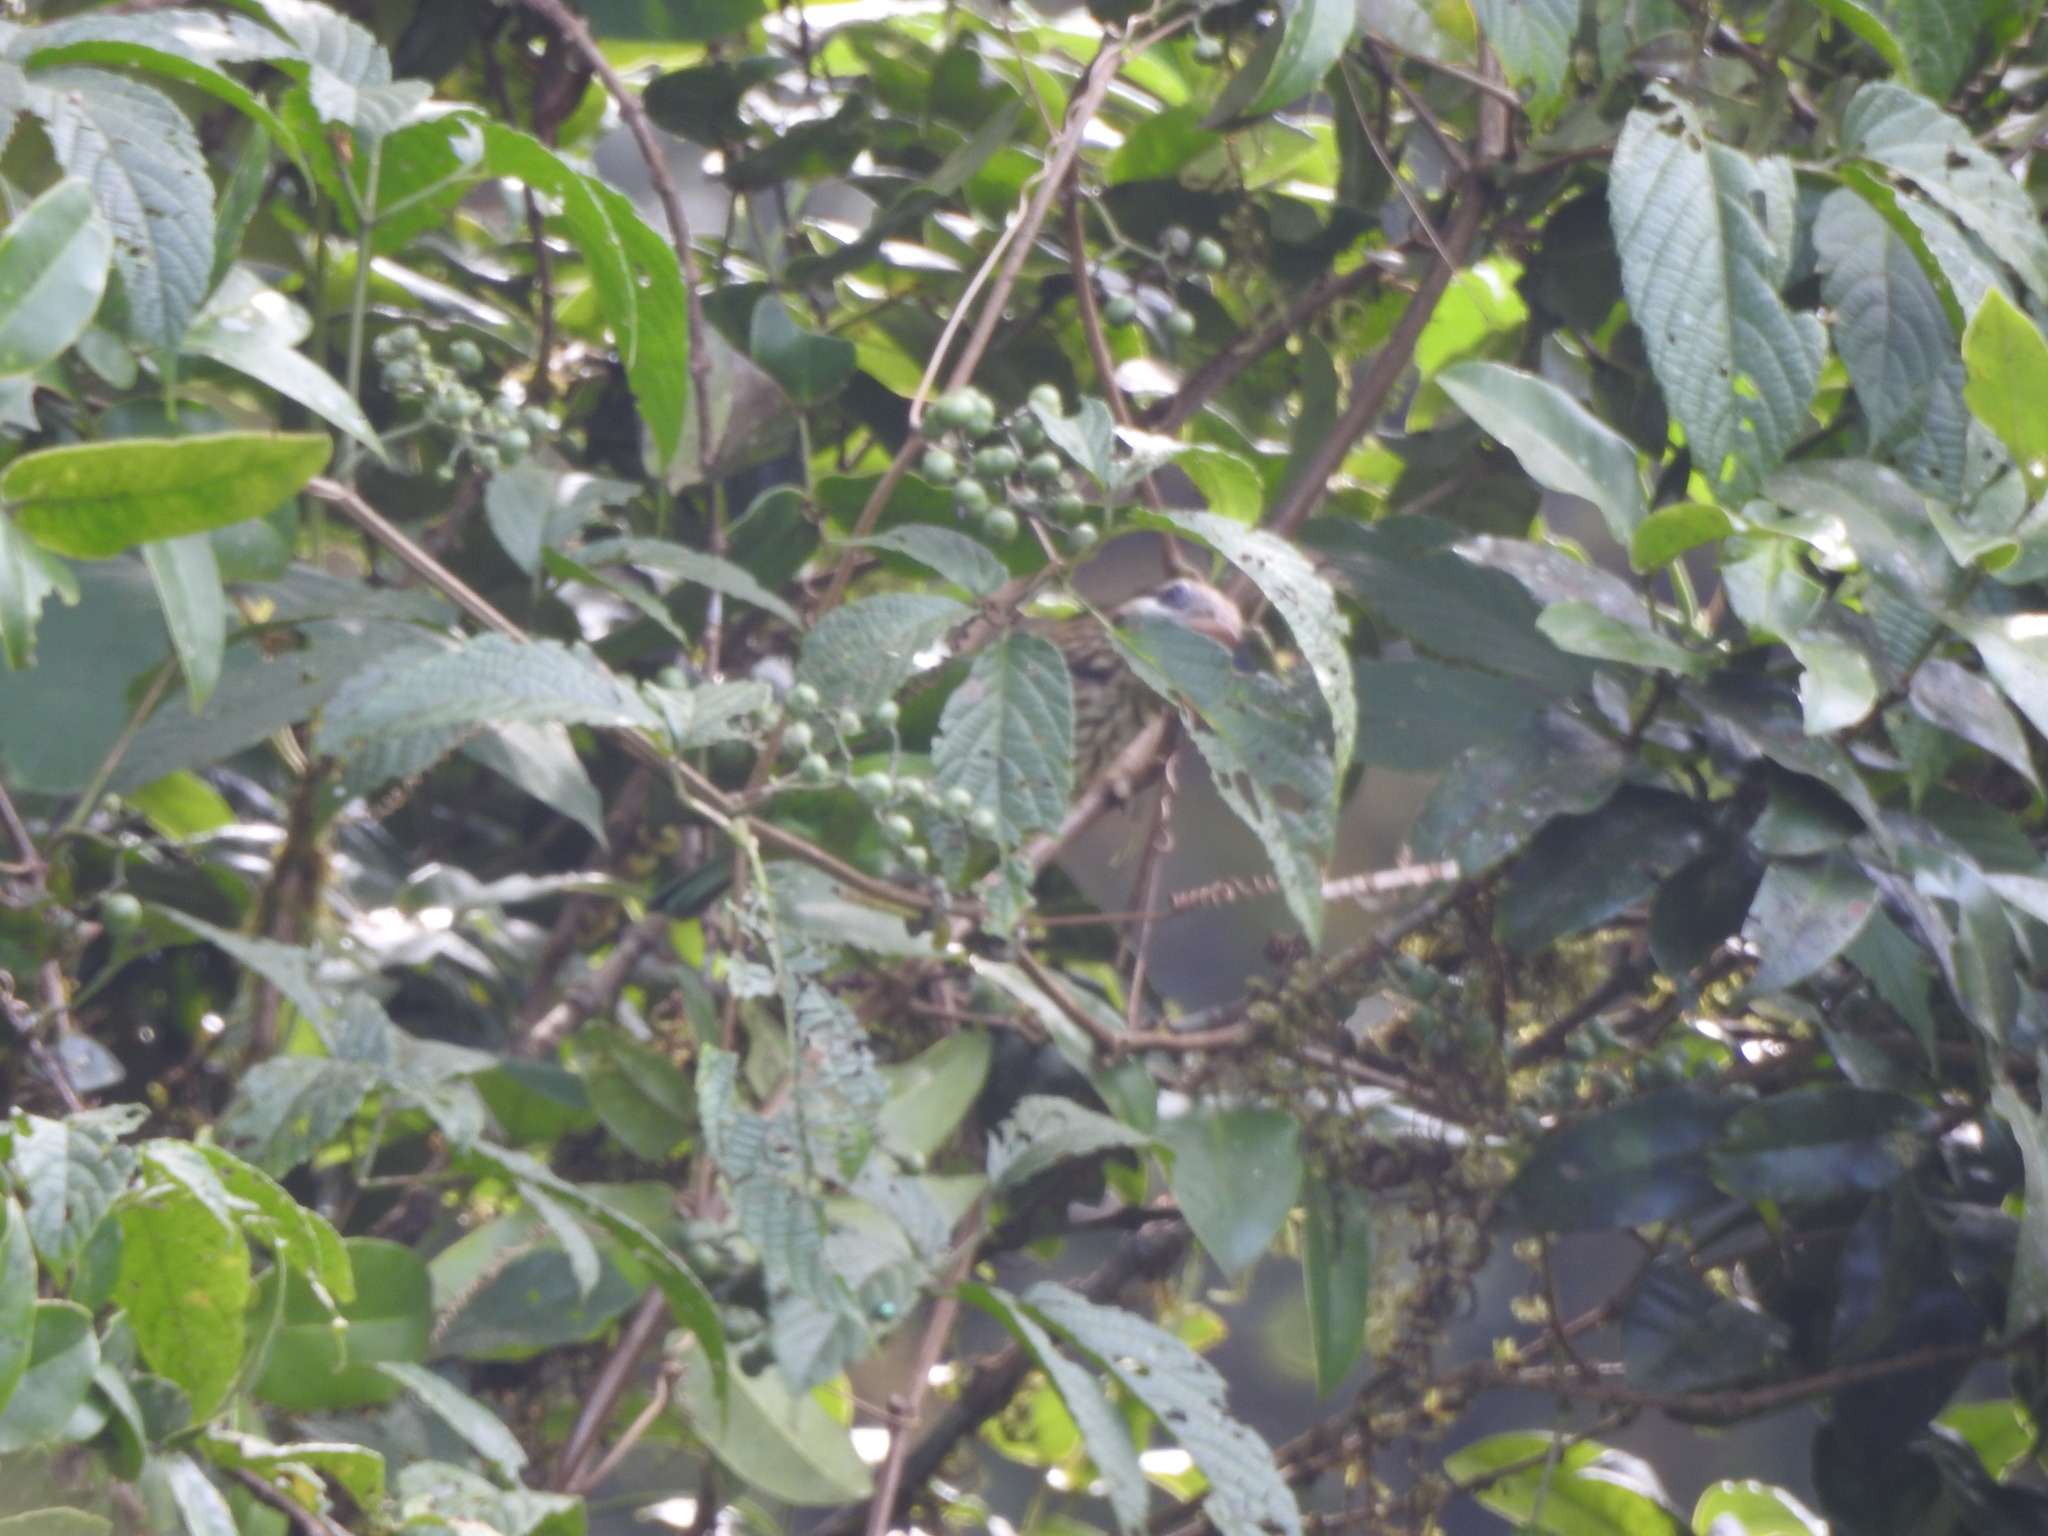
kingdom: Animalia
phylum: Chordata
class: Aves
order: Piciformes
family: Megalaimidae
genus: Psilopogon
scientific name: Psilopogon viridis
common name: White-cheeked barbet
